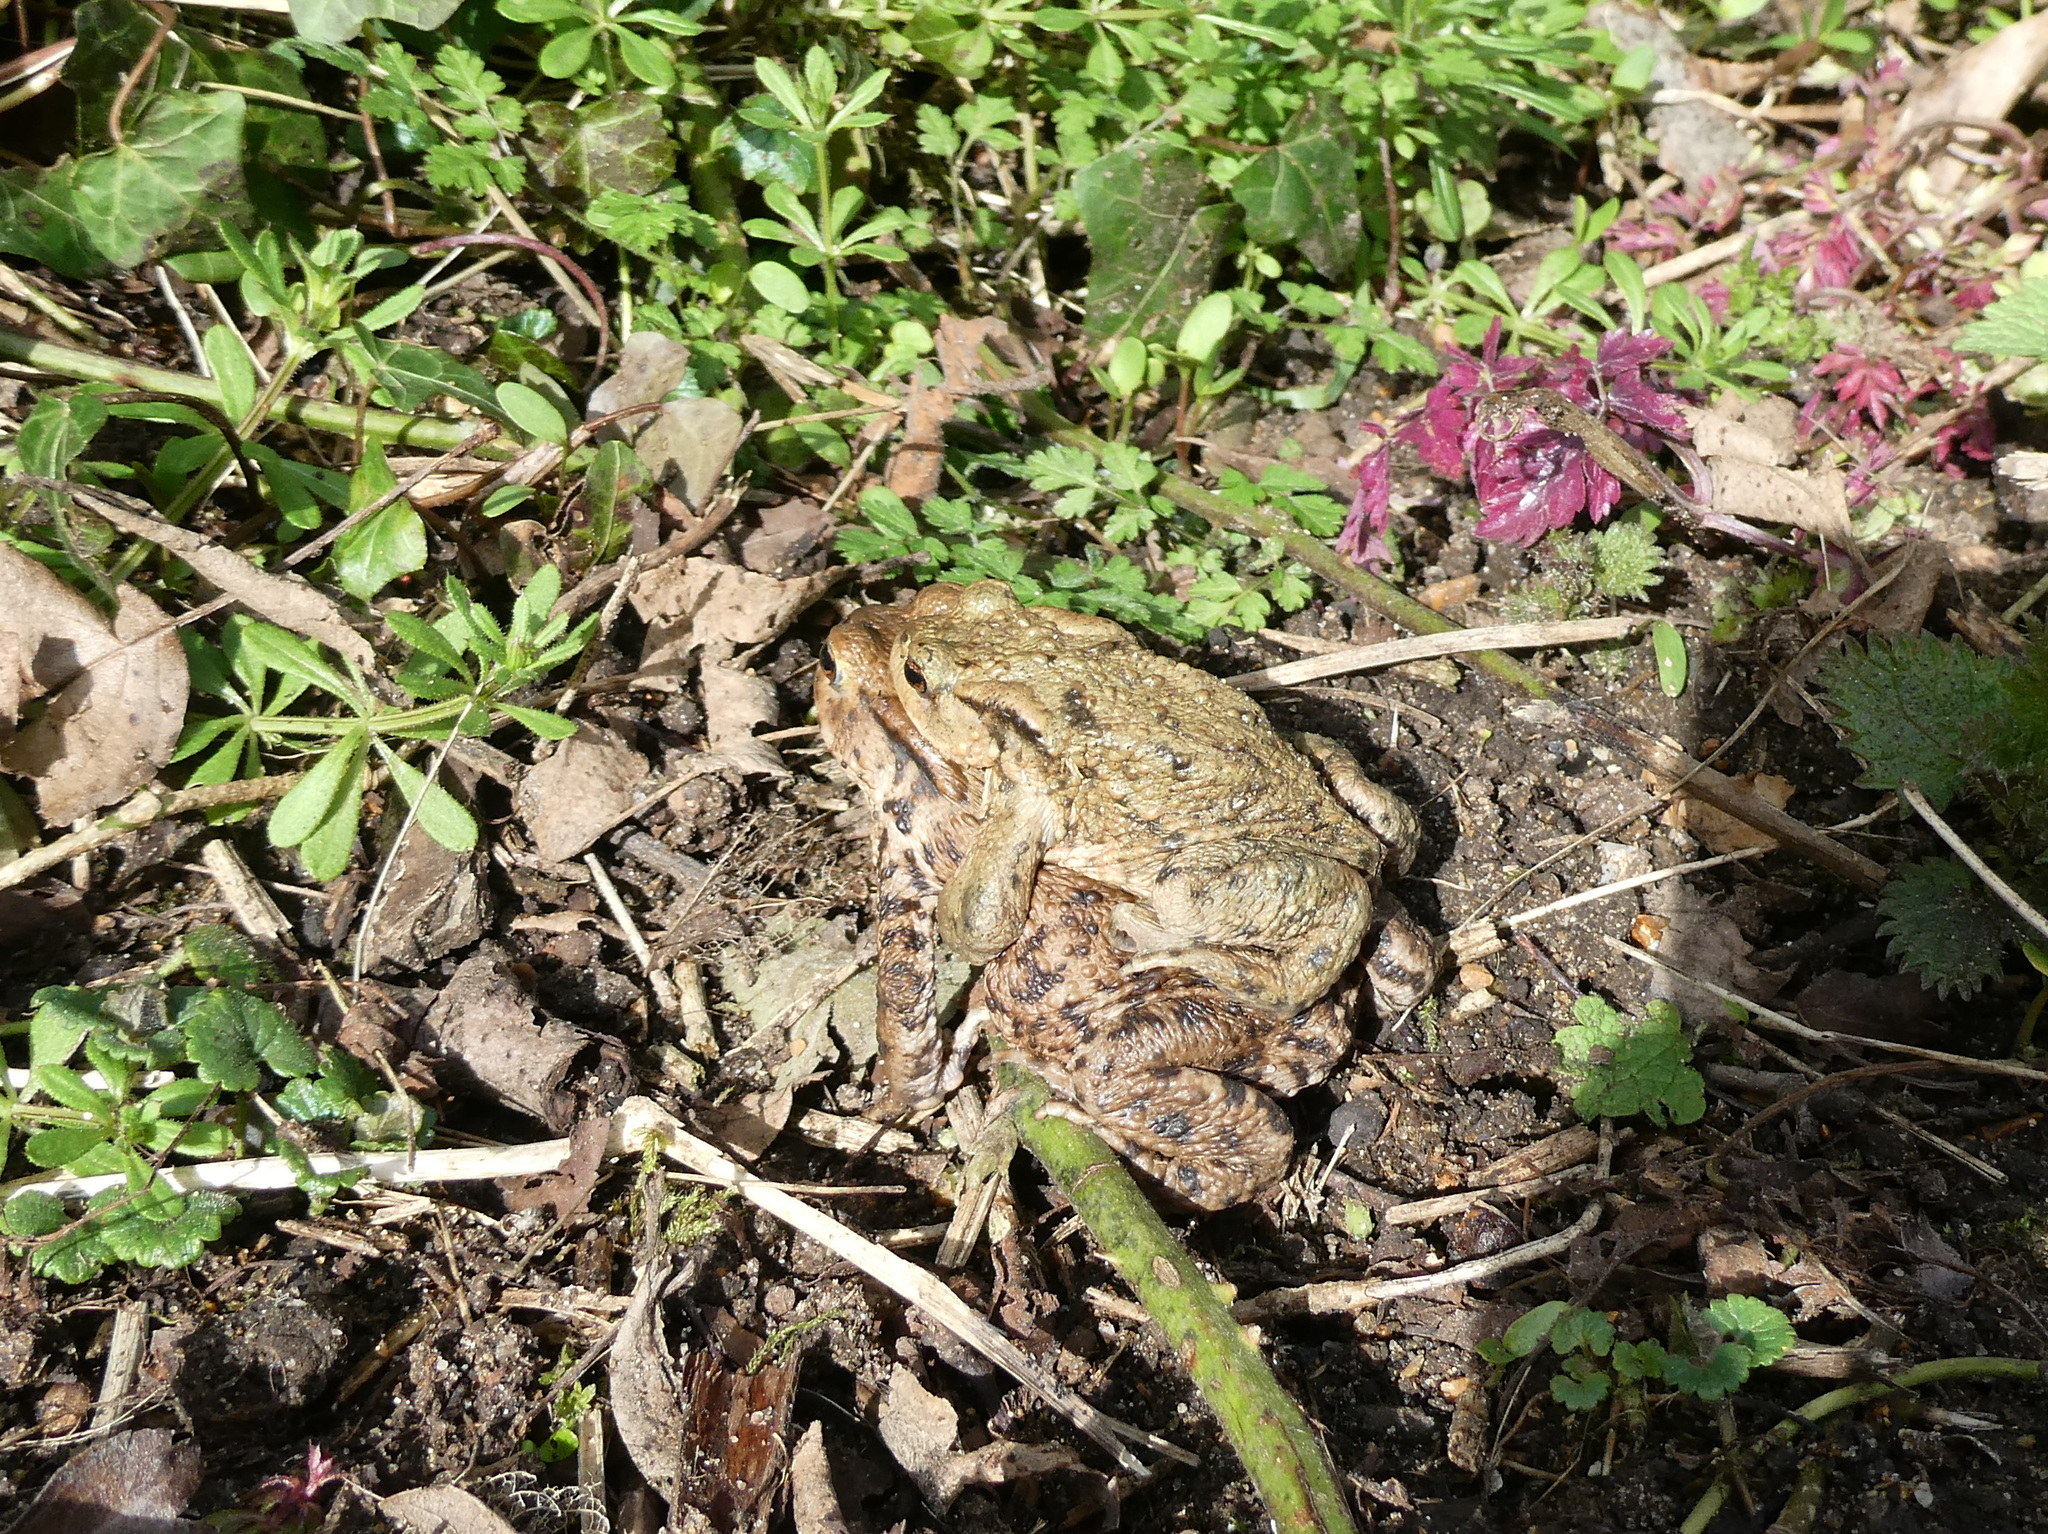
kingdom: Animalia
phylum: Chordata
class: Amphibia
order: Anura
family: Bufonidae
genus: Bufo
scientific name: Bufo bufo
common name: Common toad
